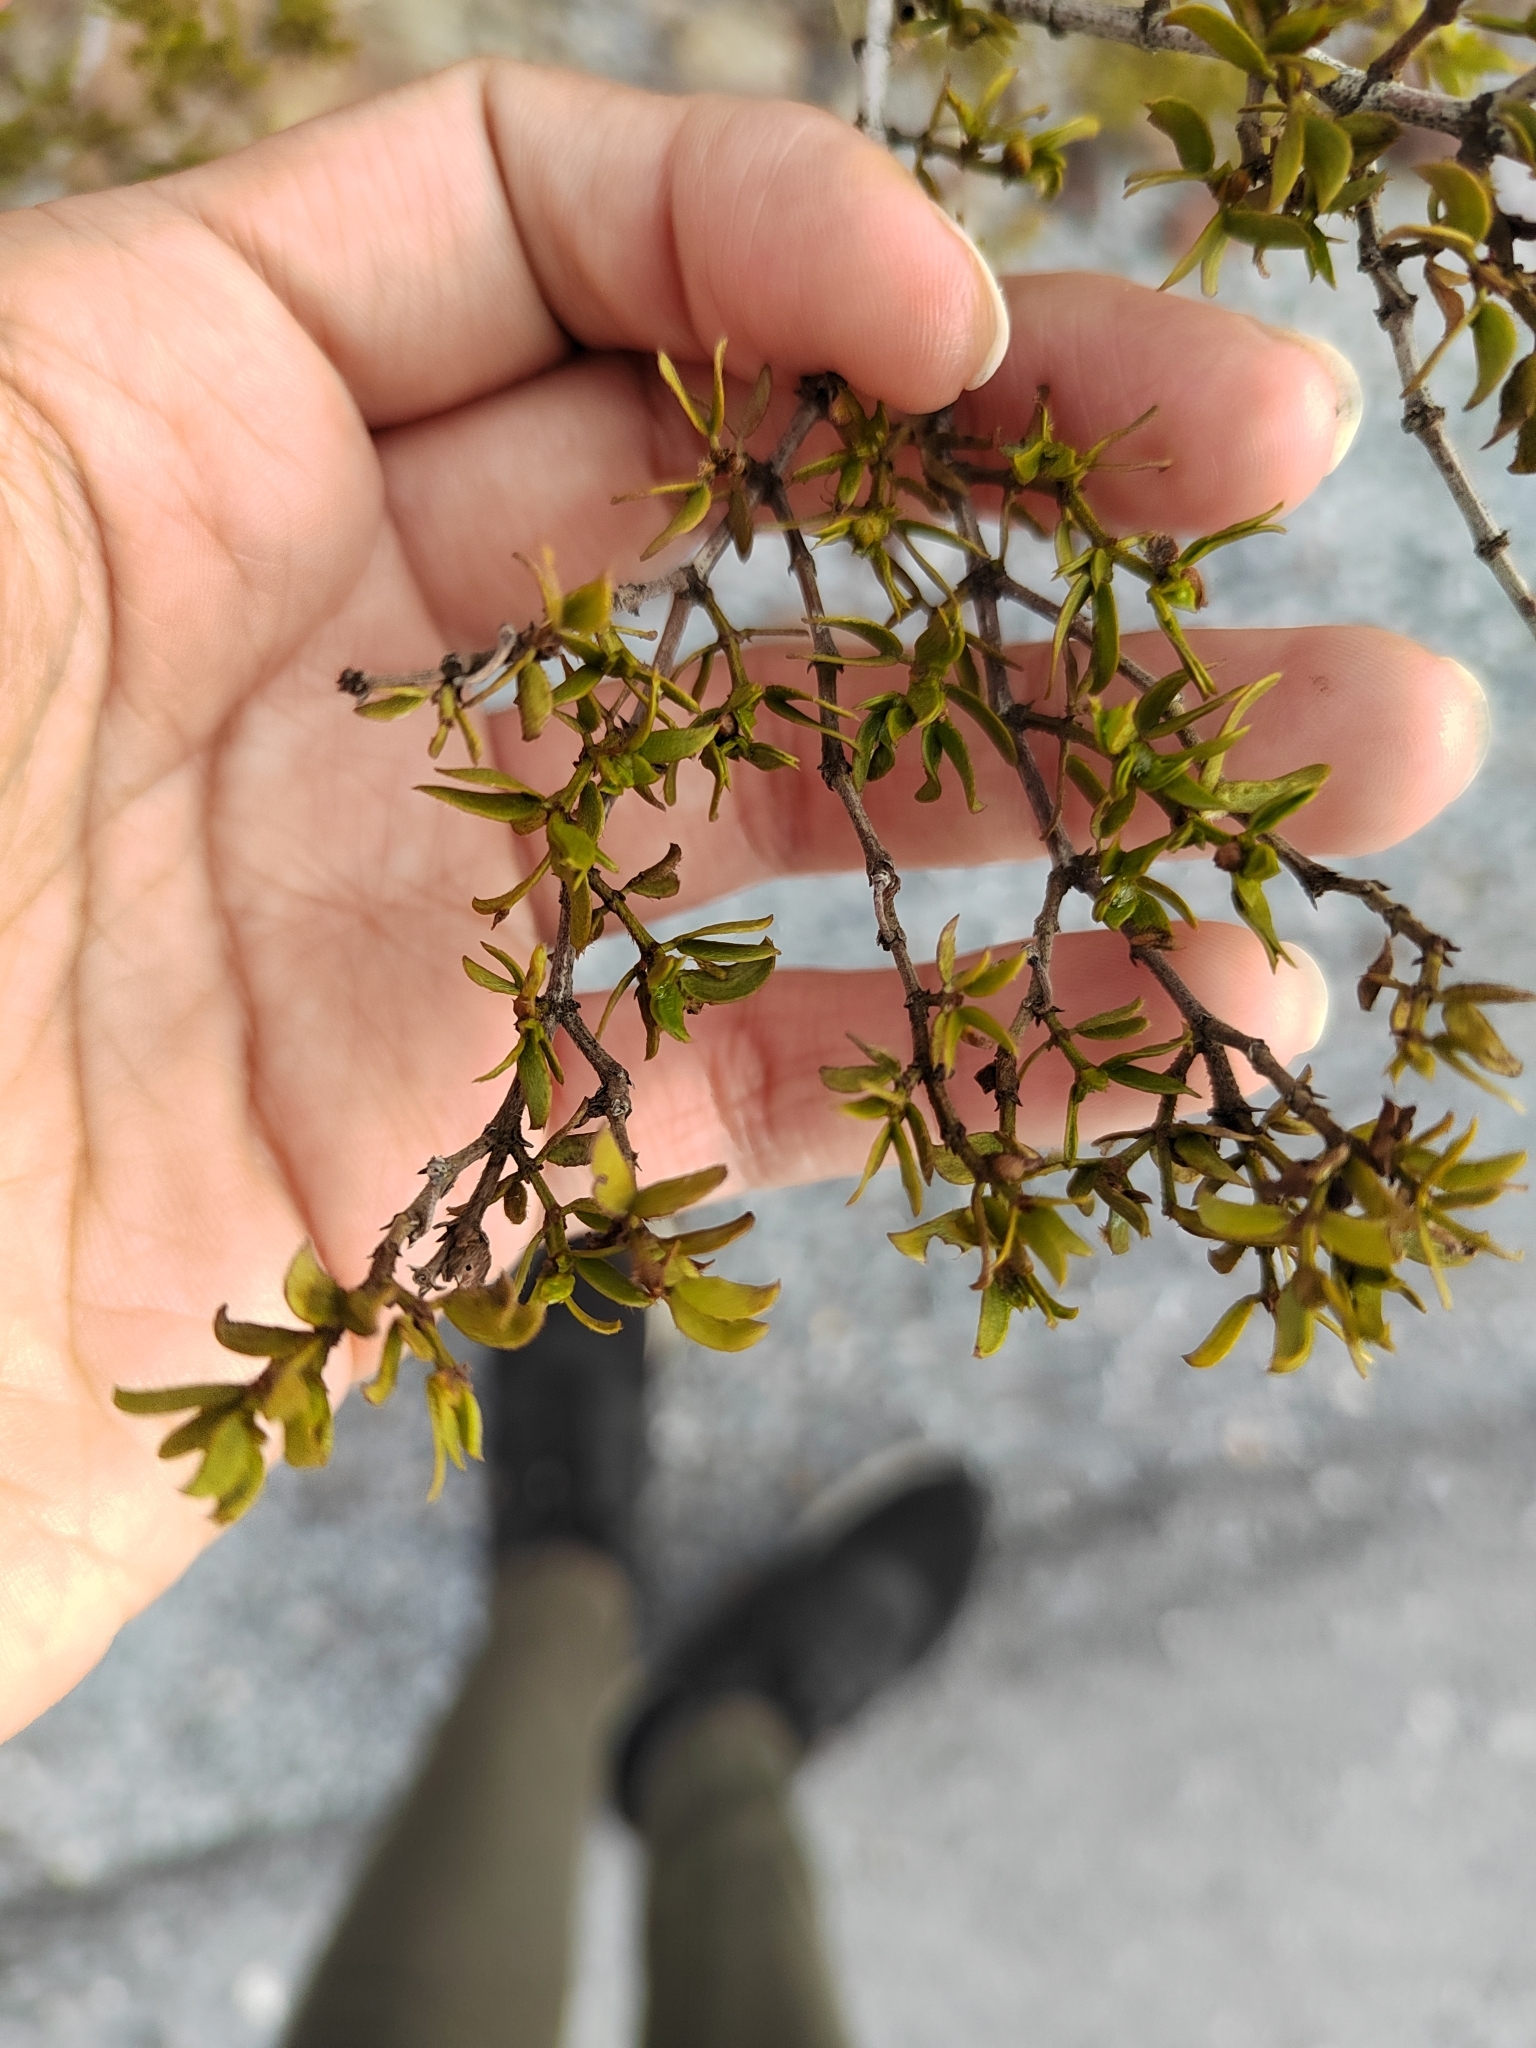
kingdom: Plantae
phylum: Tracheophyta
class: Magnoliopsida
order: Zygophyllales
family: Zygophyllaceae
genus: Larrea
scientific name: Larrea tridentata
